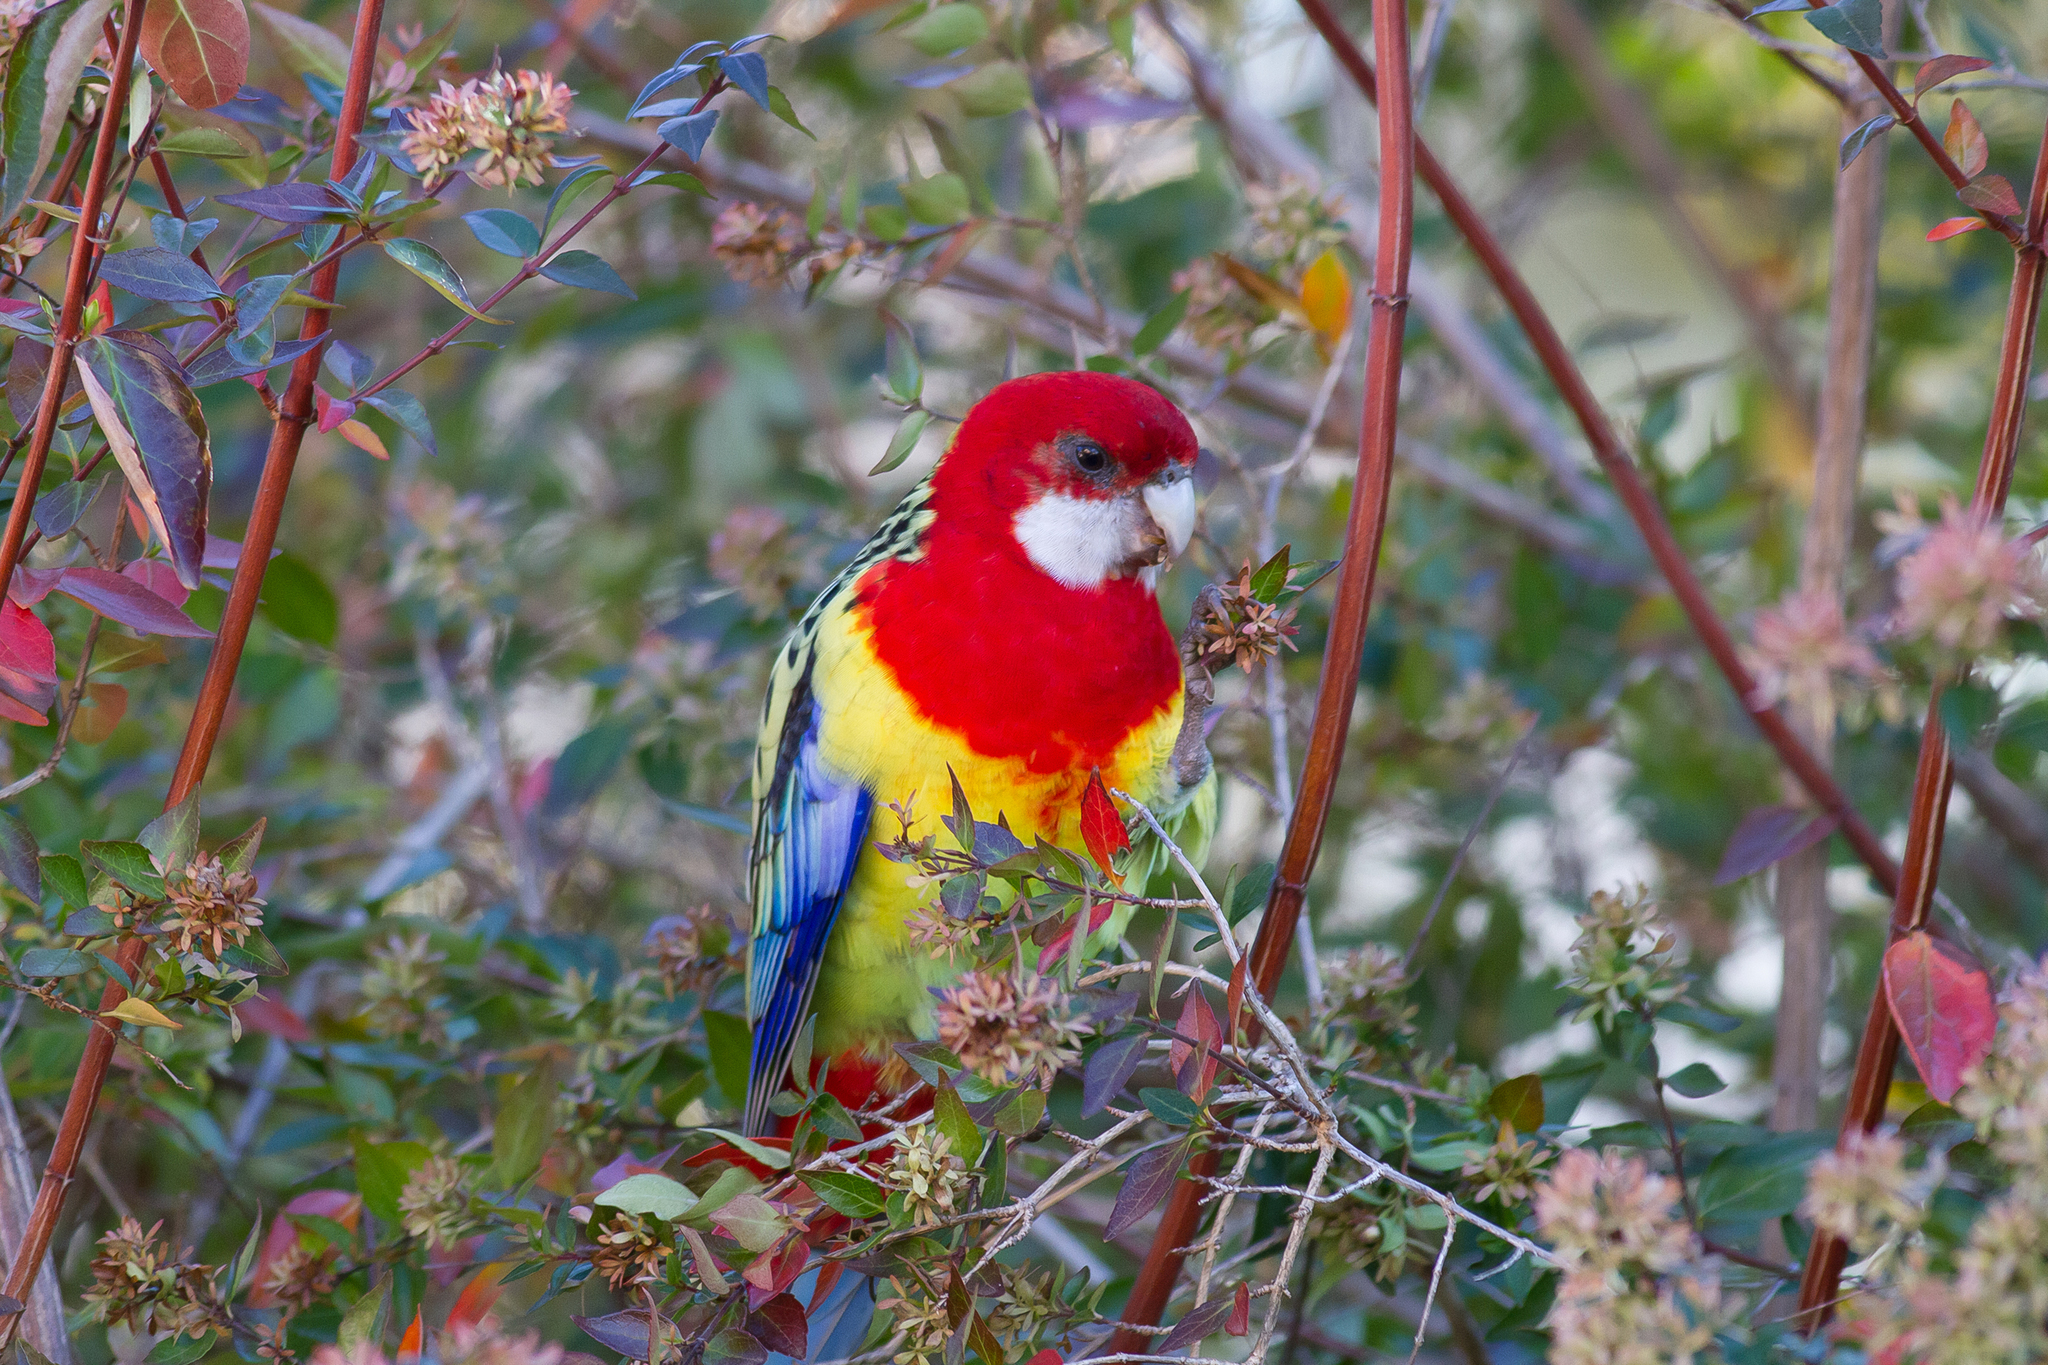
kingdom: Animalia
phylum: Chordata
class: Aves
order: Psittaciformes
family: Psittacidae
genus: Platycercus
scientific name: Platycercus eximius
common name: Eastern rosella
